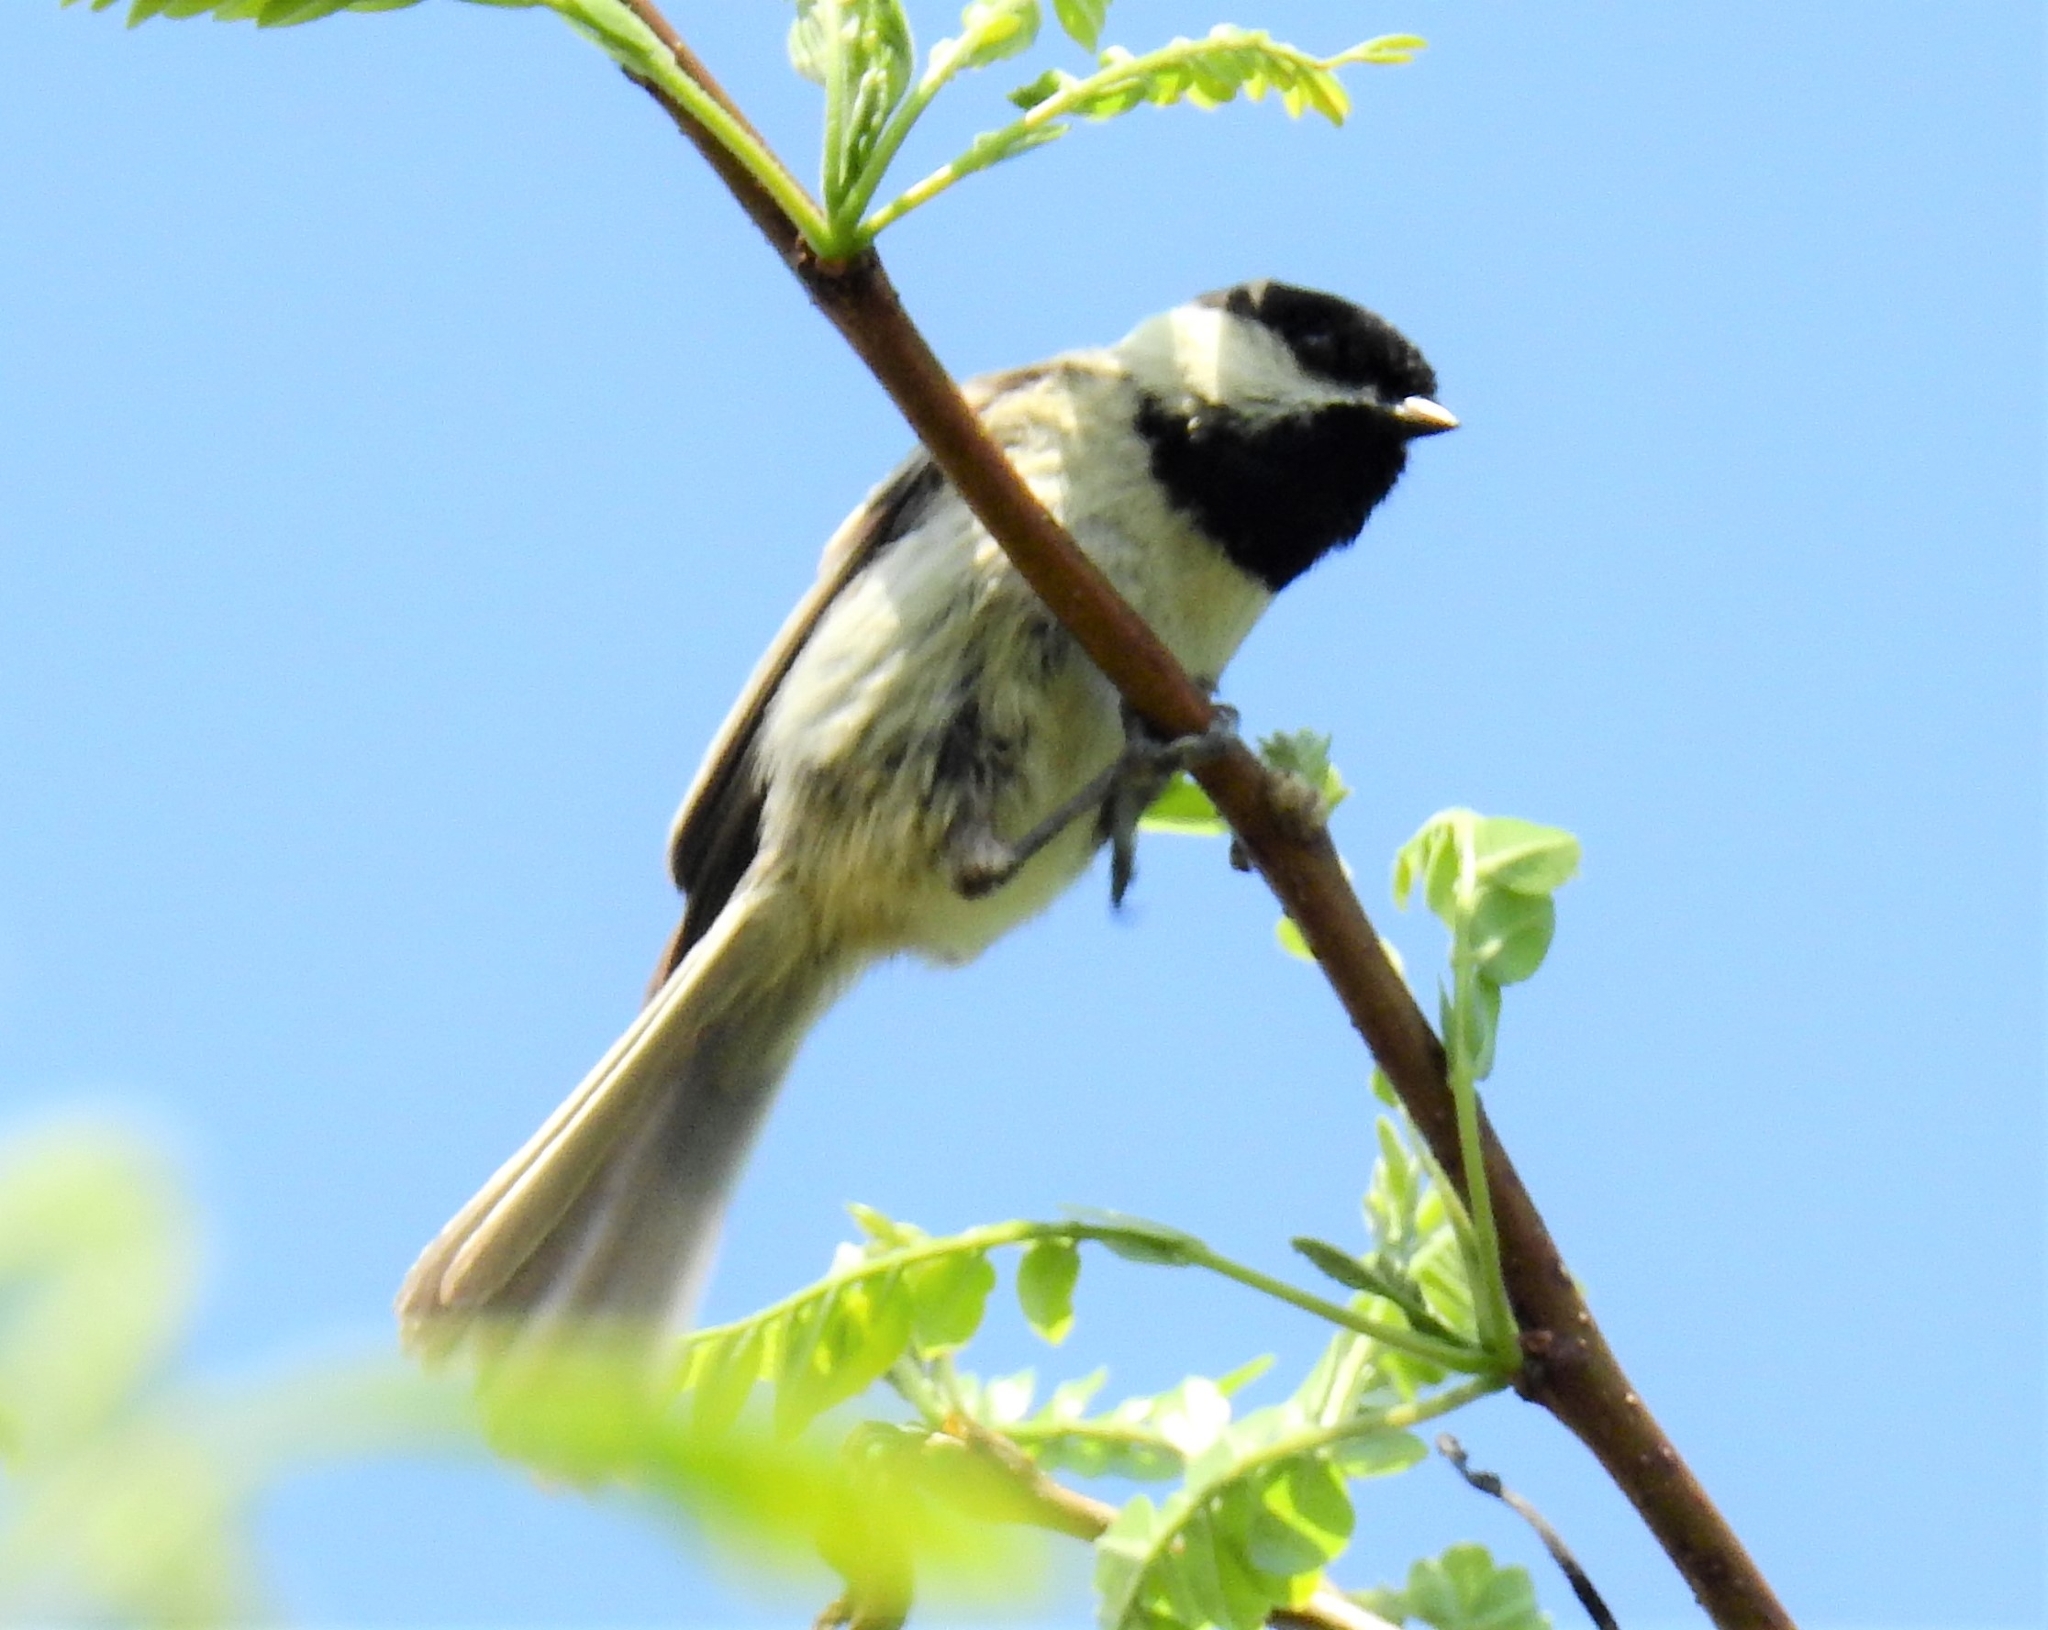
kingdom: Animalia
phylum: Chordata
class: Aves
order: Passeriformes
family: Paridae
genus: Poecile
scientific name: Poecile carolinensis
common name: Carolina chickadee
